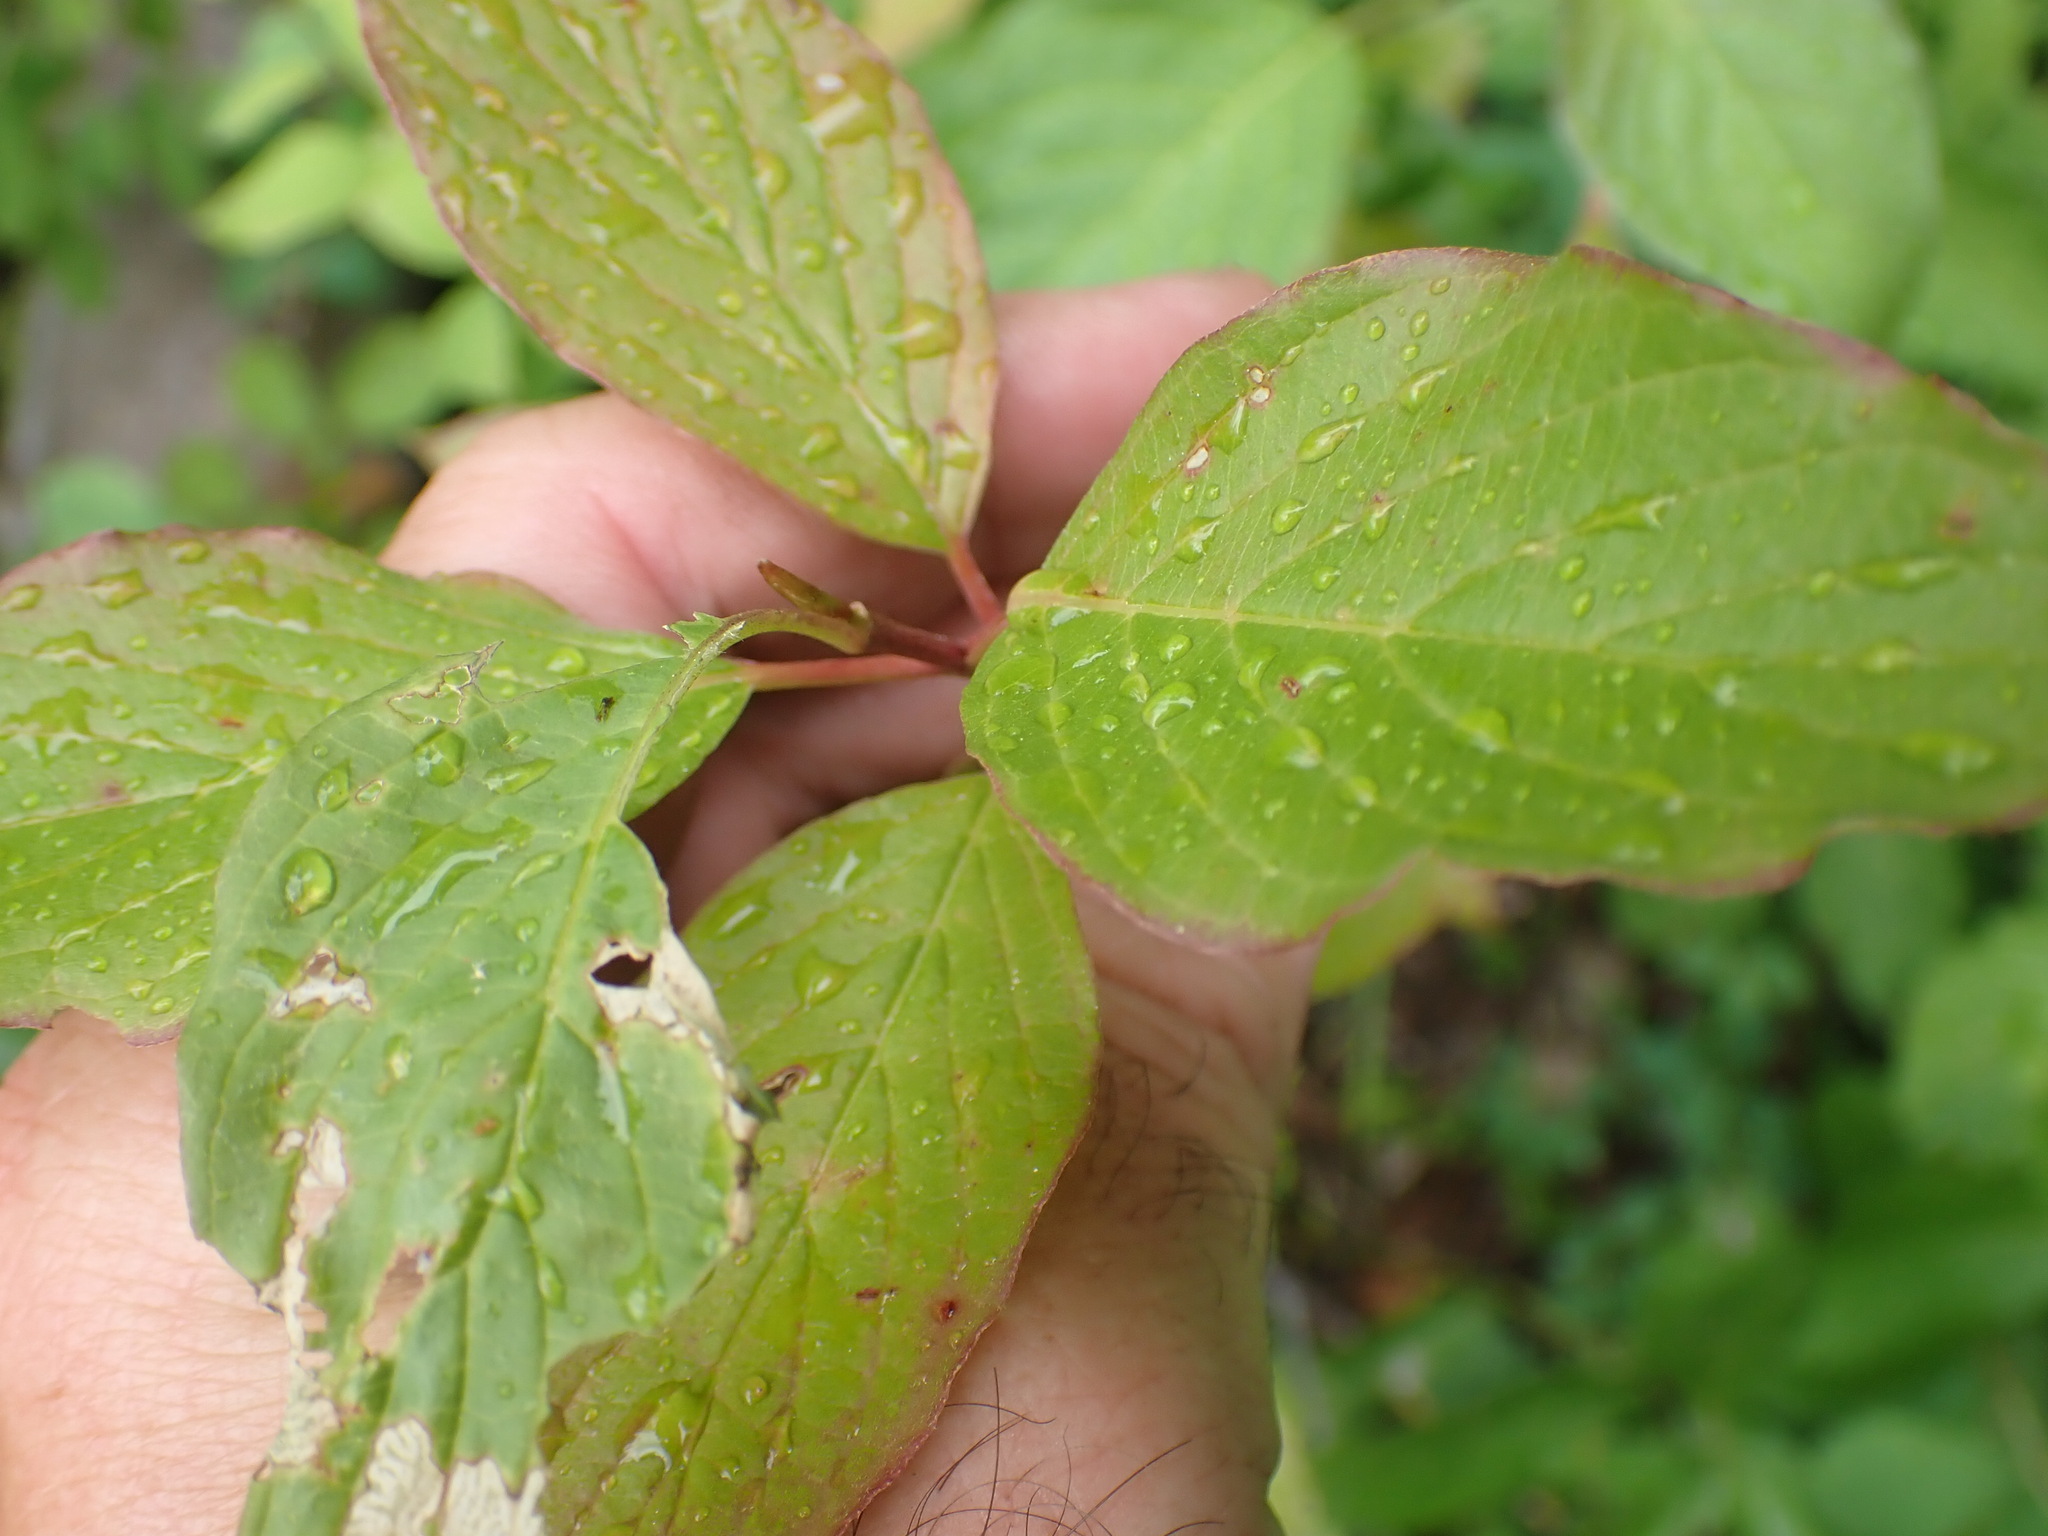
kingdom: Plantae
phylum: Tracheophyta
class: Magnoliopsida
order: Cornales
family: Cornaceae
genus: Cornus
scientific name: Cornus sericea
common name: Red-osier dogwood
